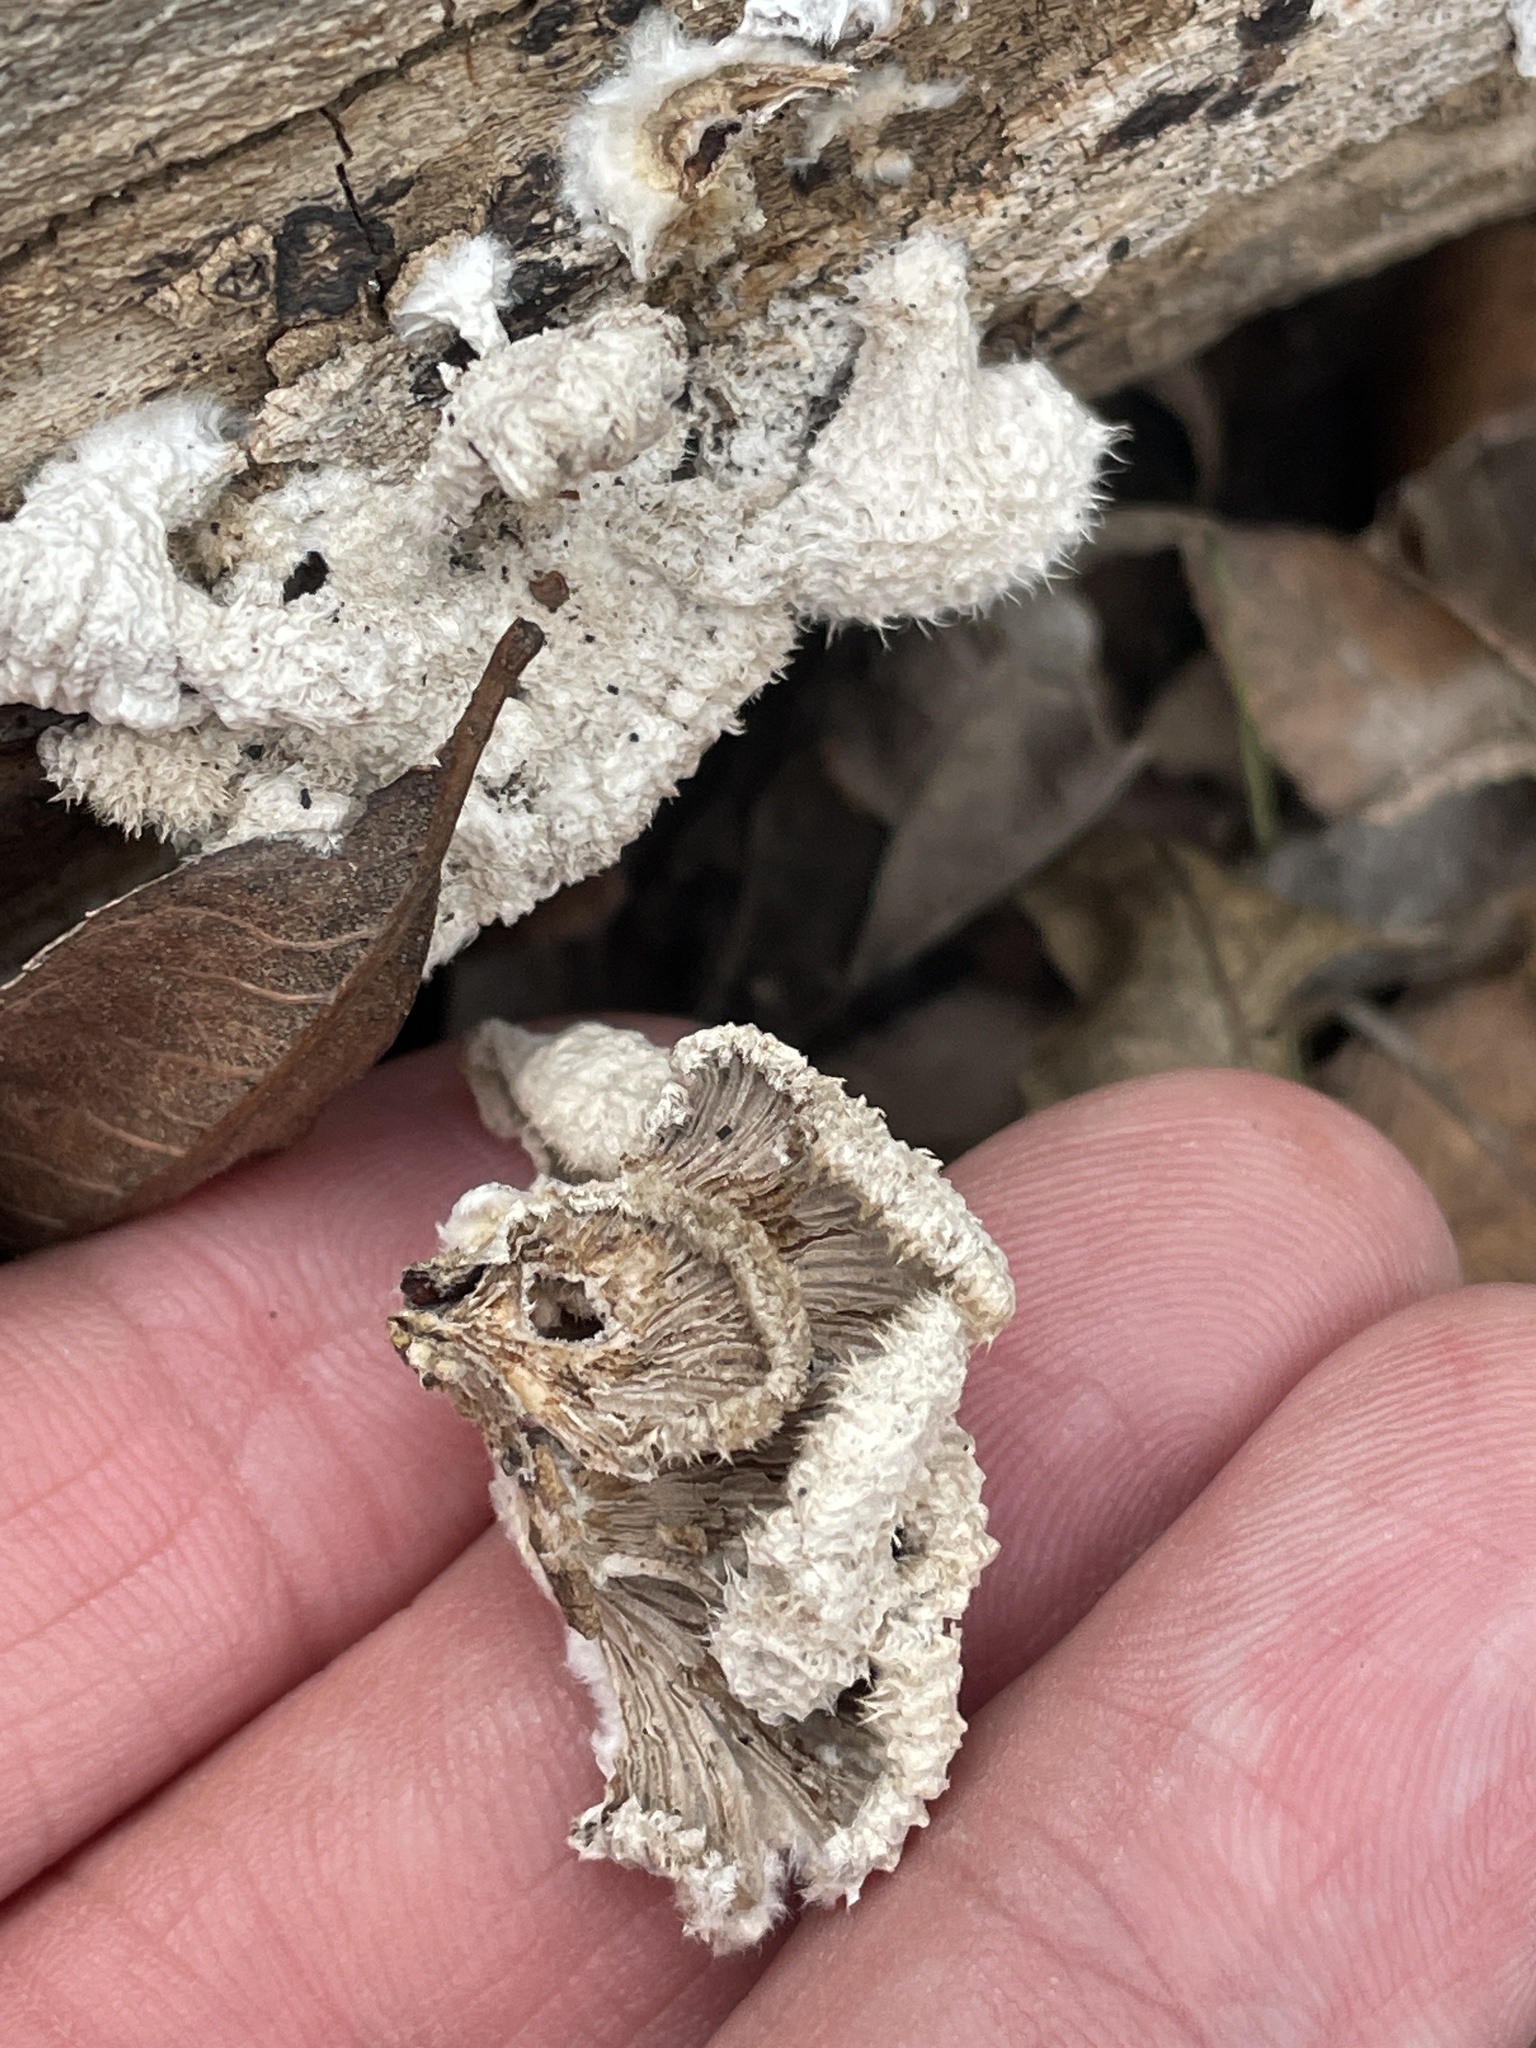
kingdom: Fungi
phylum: Basidiomycota
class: Agaricomycetes
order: Agaricales
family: Schizophyllaceae
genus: Schizophyllum
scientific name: Schizophyllum commune
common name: Common porecrust
